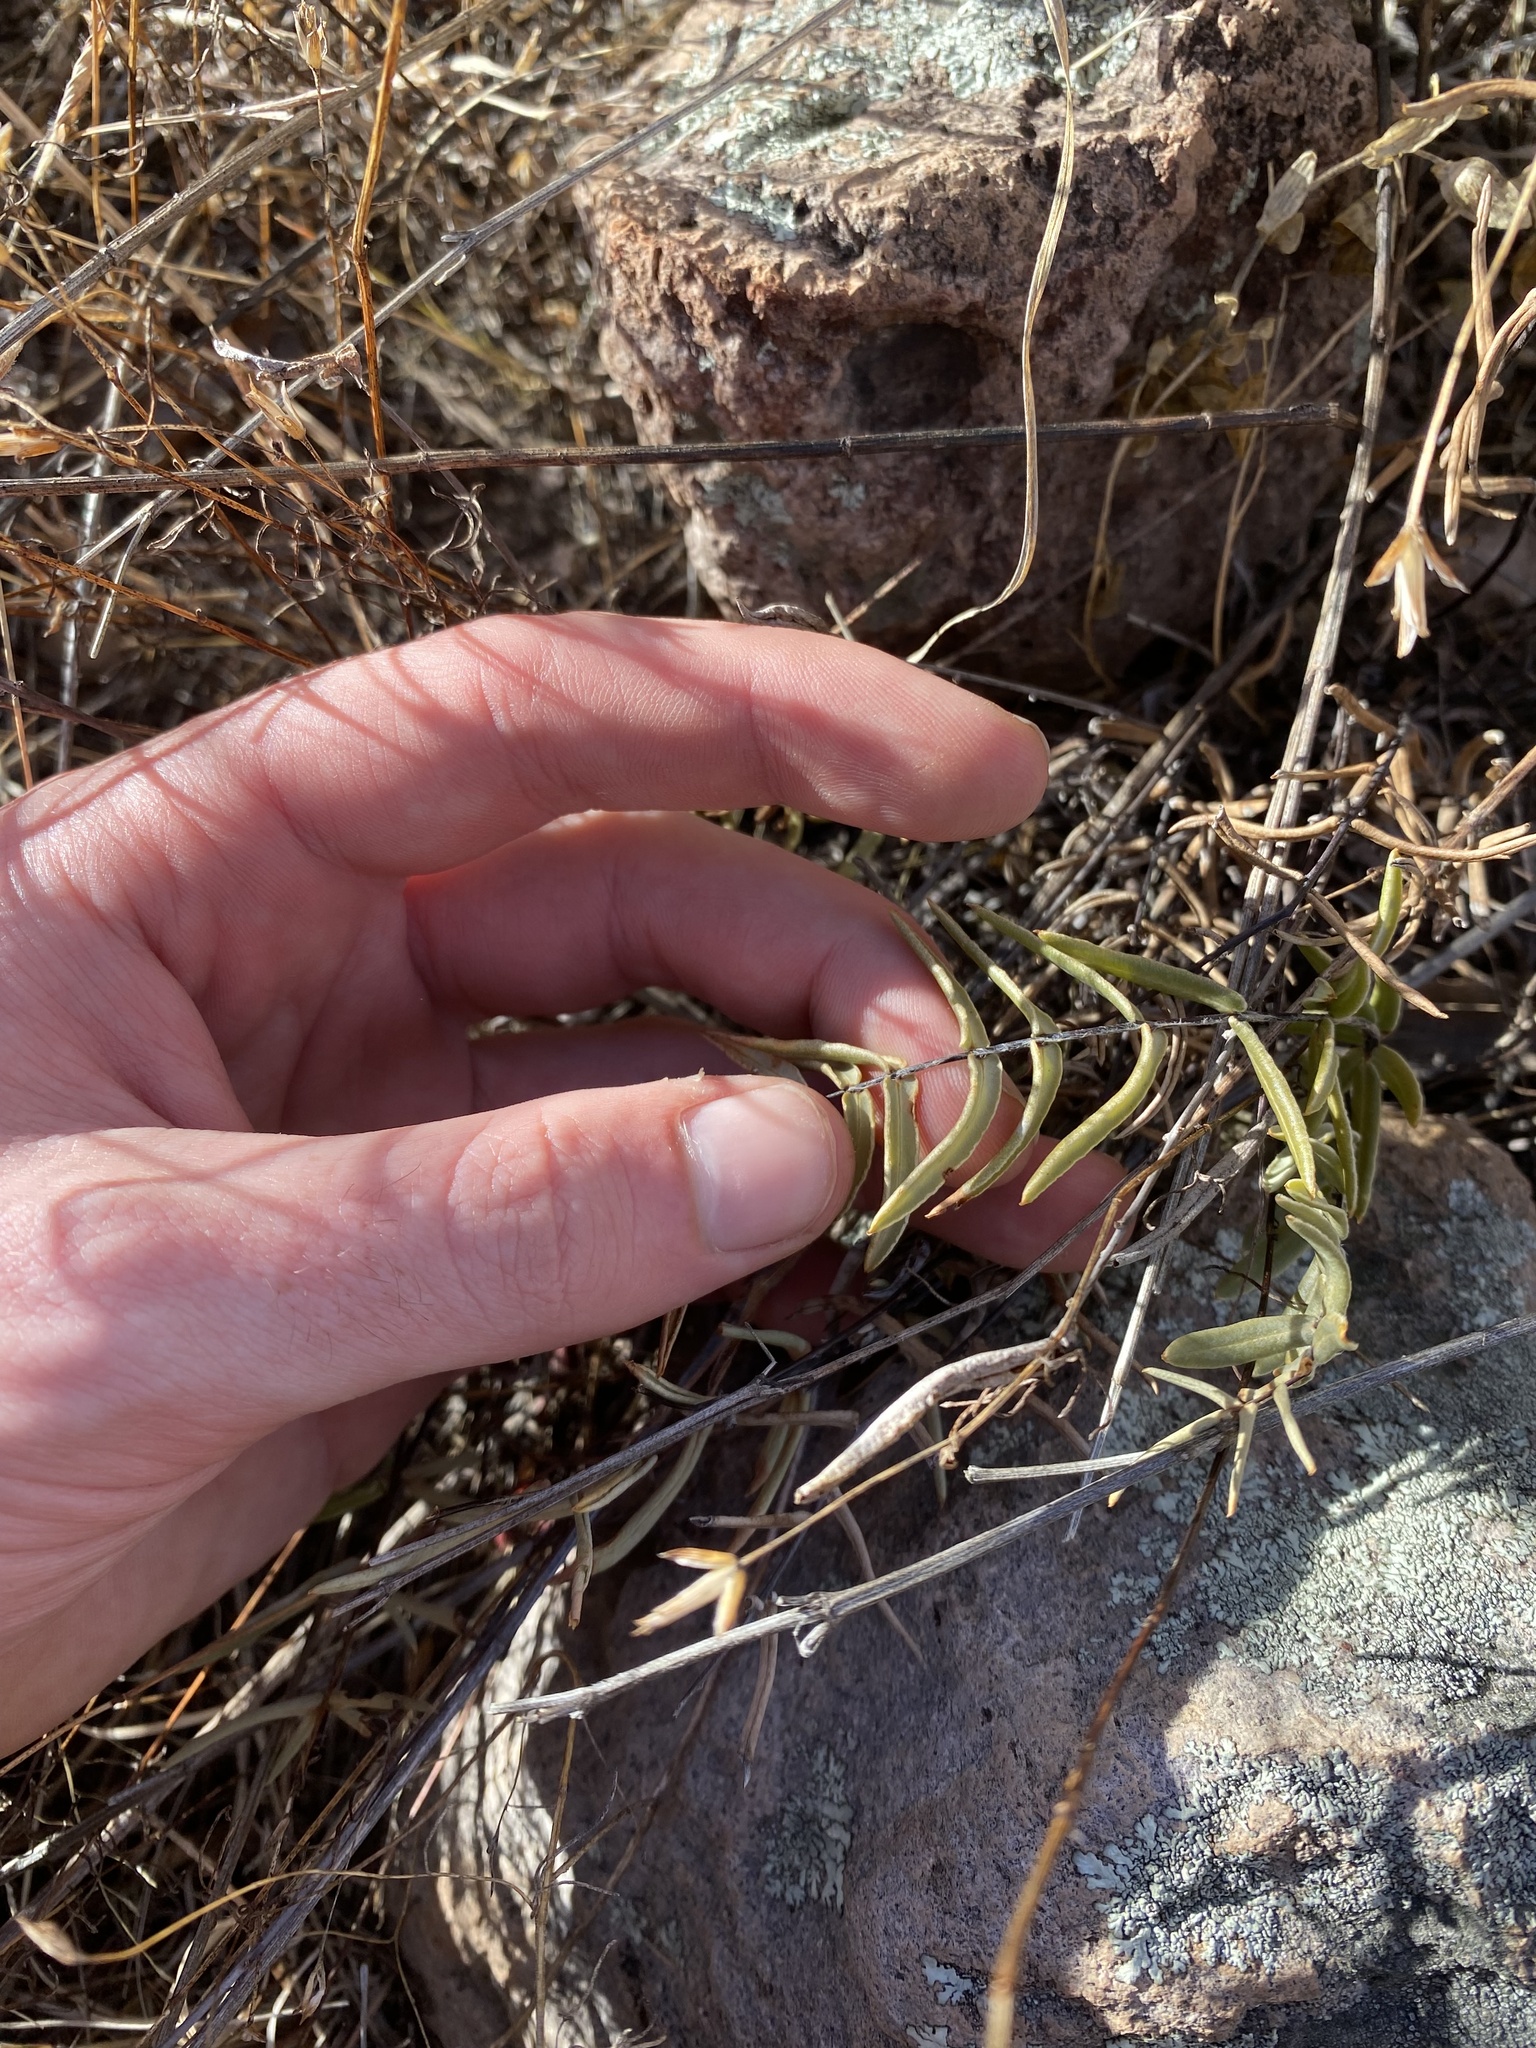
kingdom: Plantae
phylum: Tracheophyta
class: Polypodiopsida
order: Polypodiales
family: Pteridaceae
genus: Pellaea
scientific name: Pellaea ternifolia
